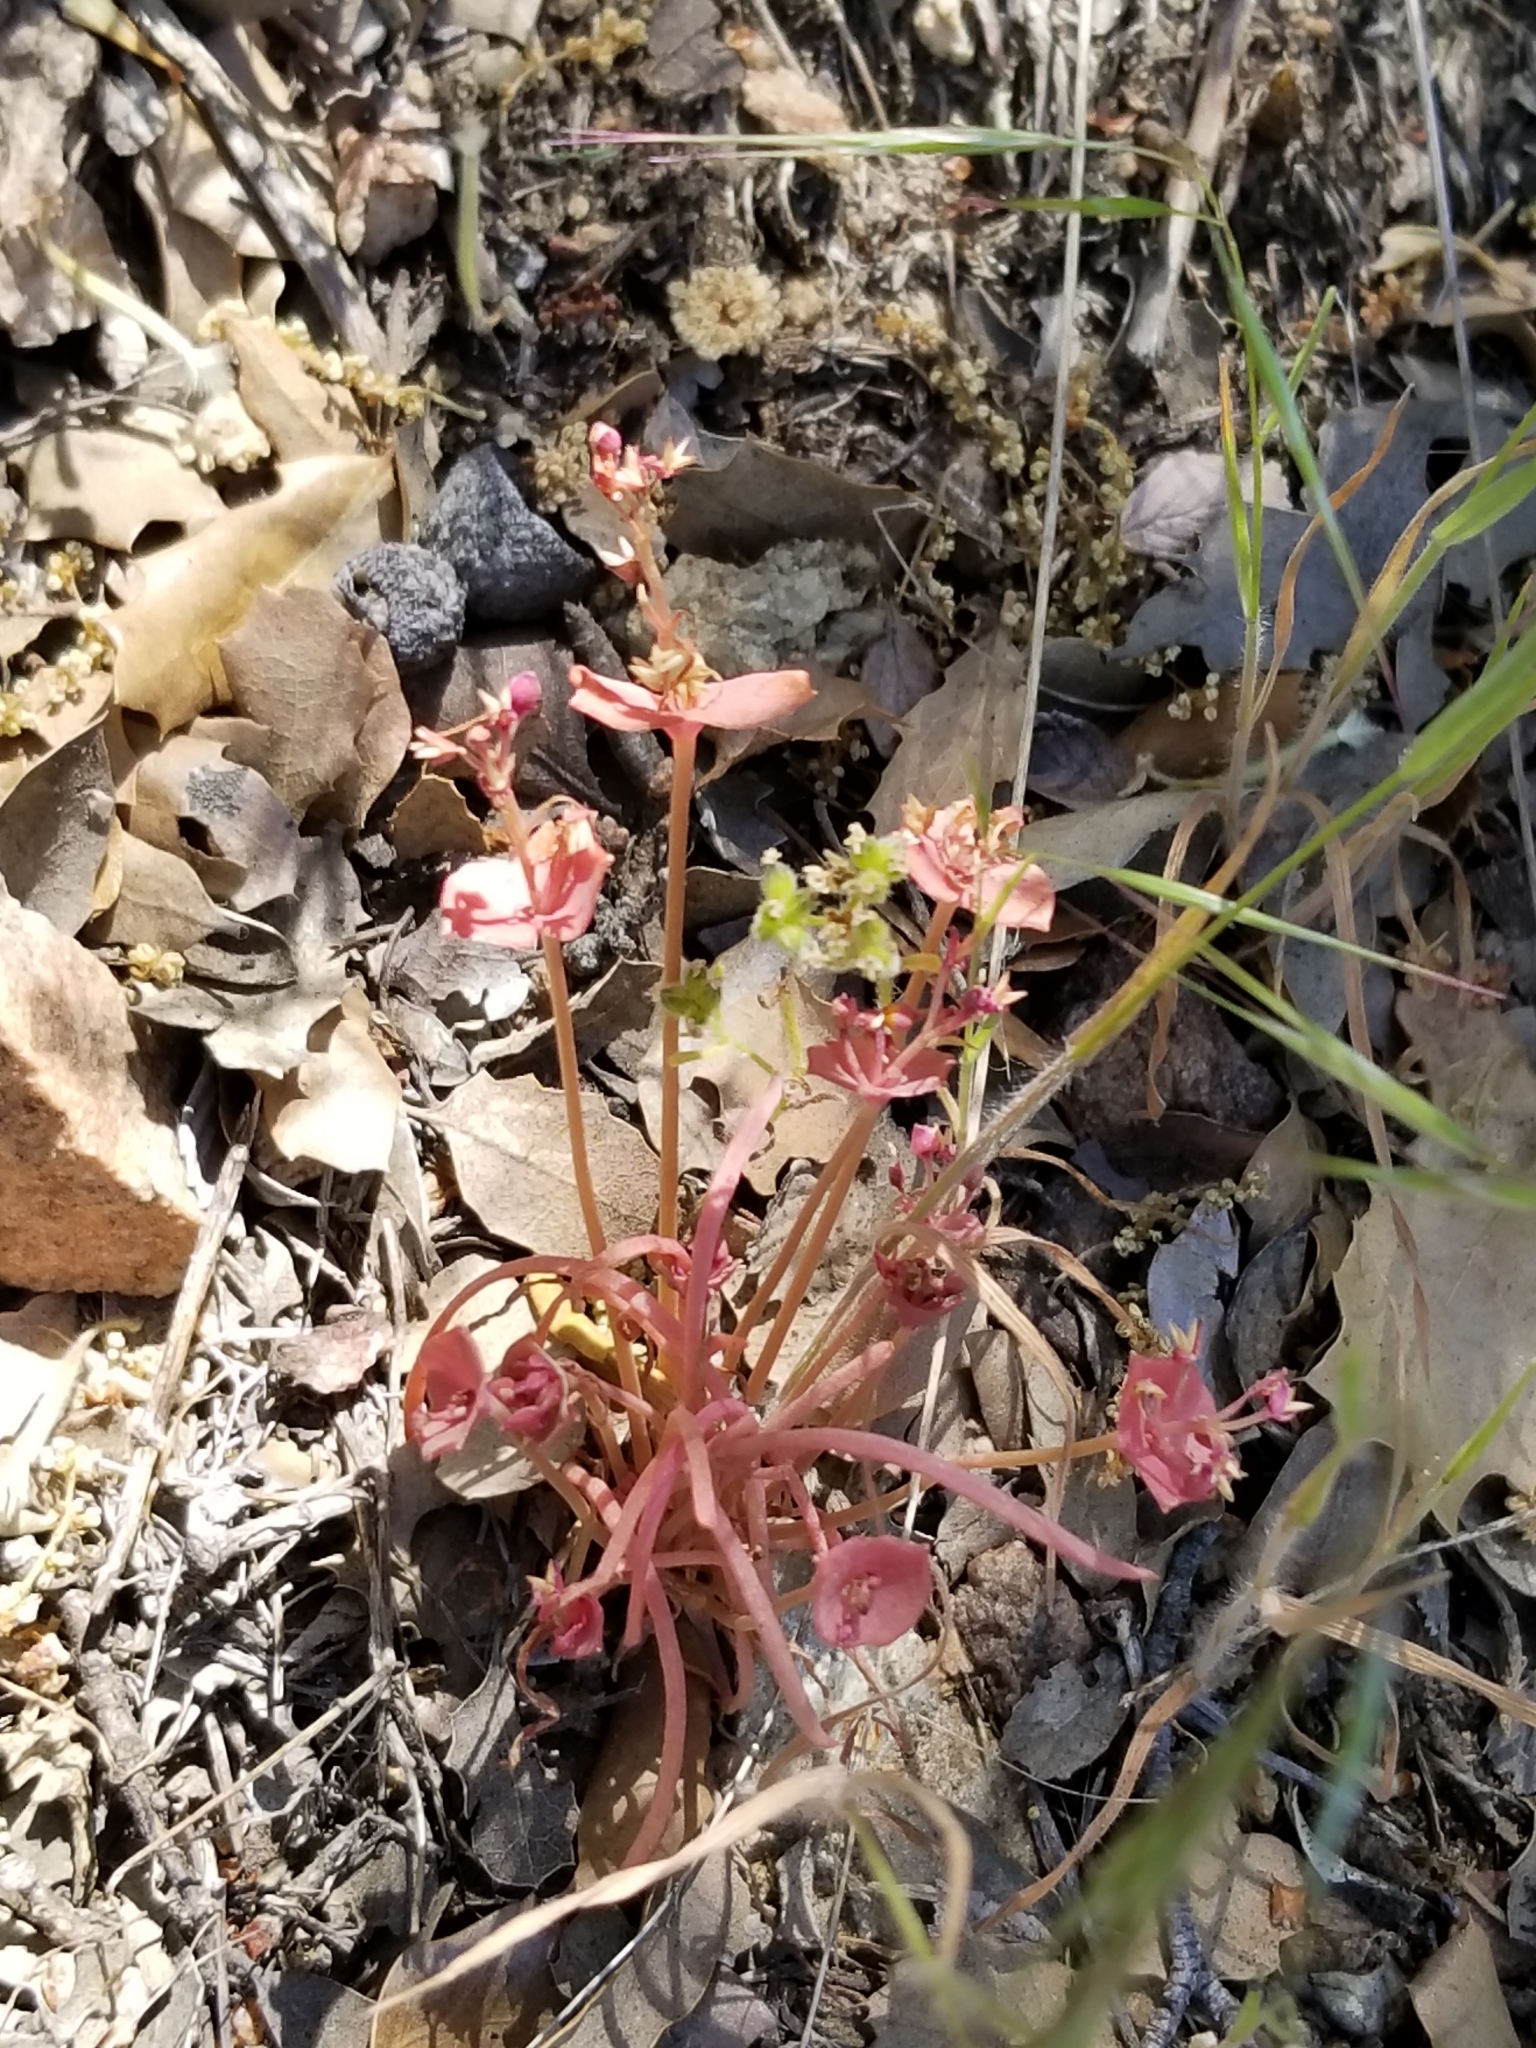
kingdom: Plantae
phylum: Tracheophyta
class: Magnoliopsida
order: Caryophyllales
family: Montiaceae
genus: Claytonia
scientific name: Claytonia parviflora
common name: Indian-lettuce
